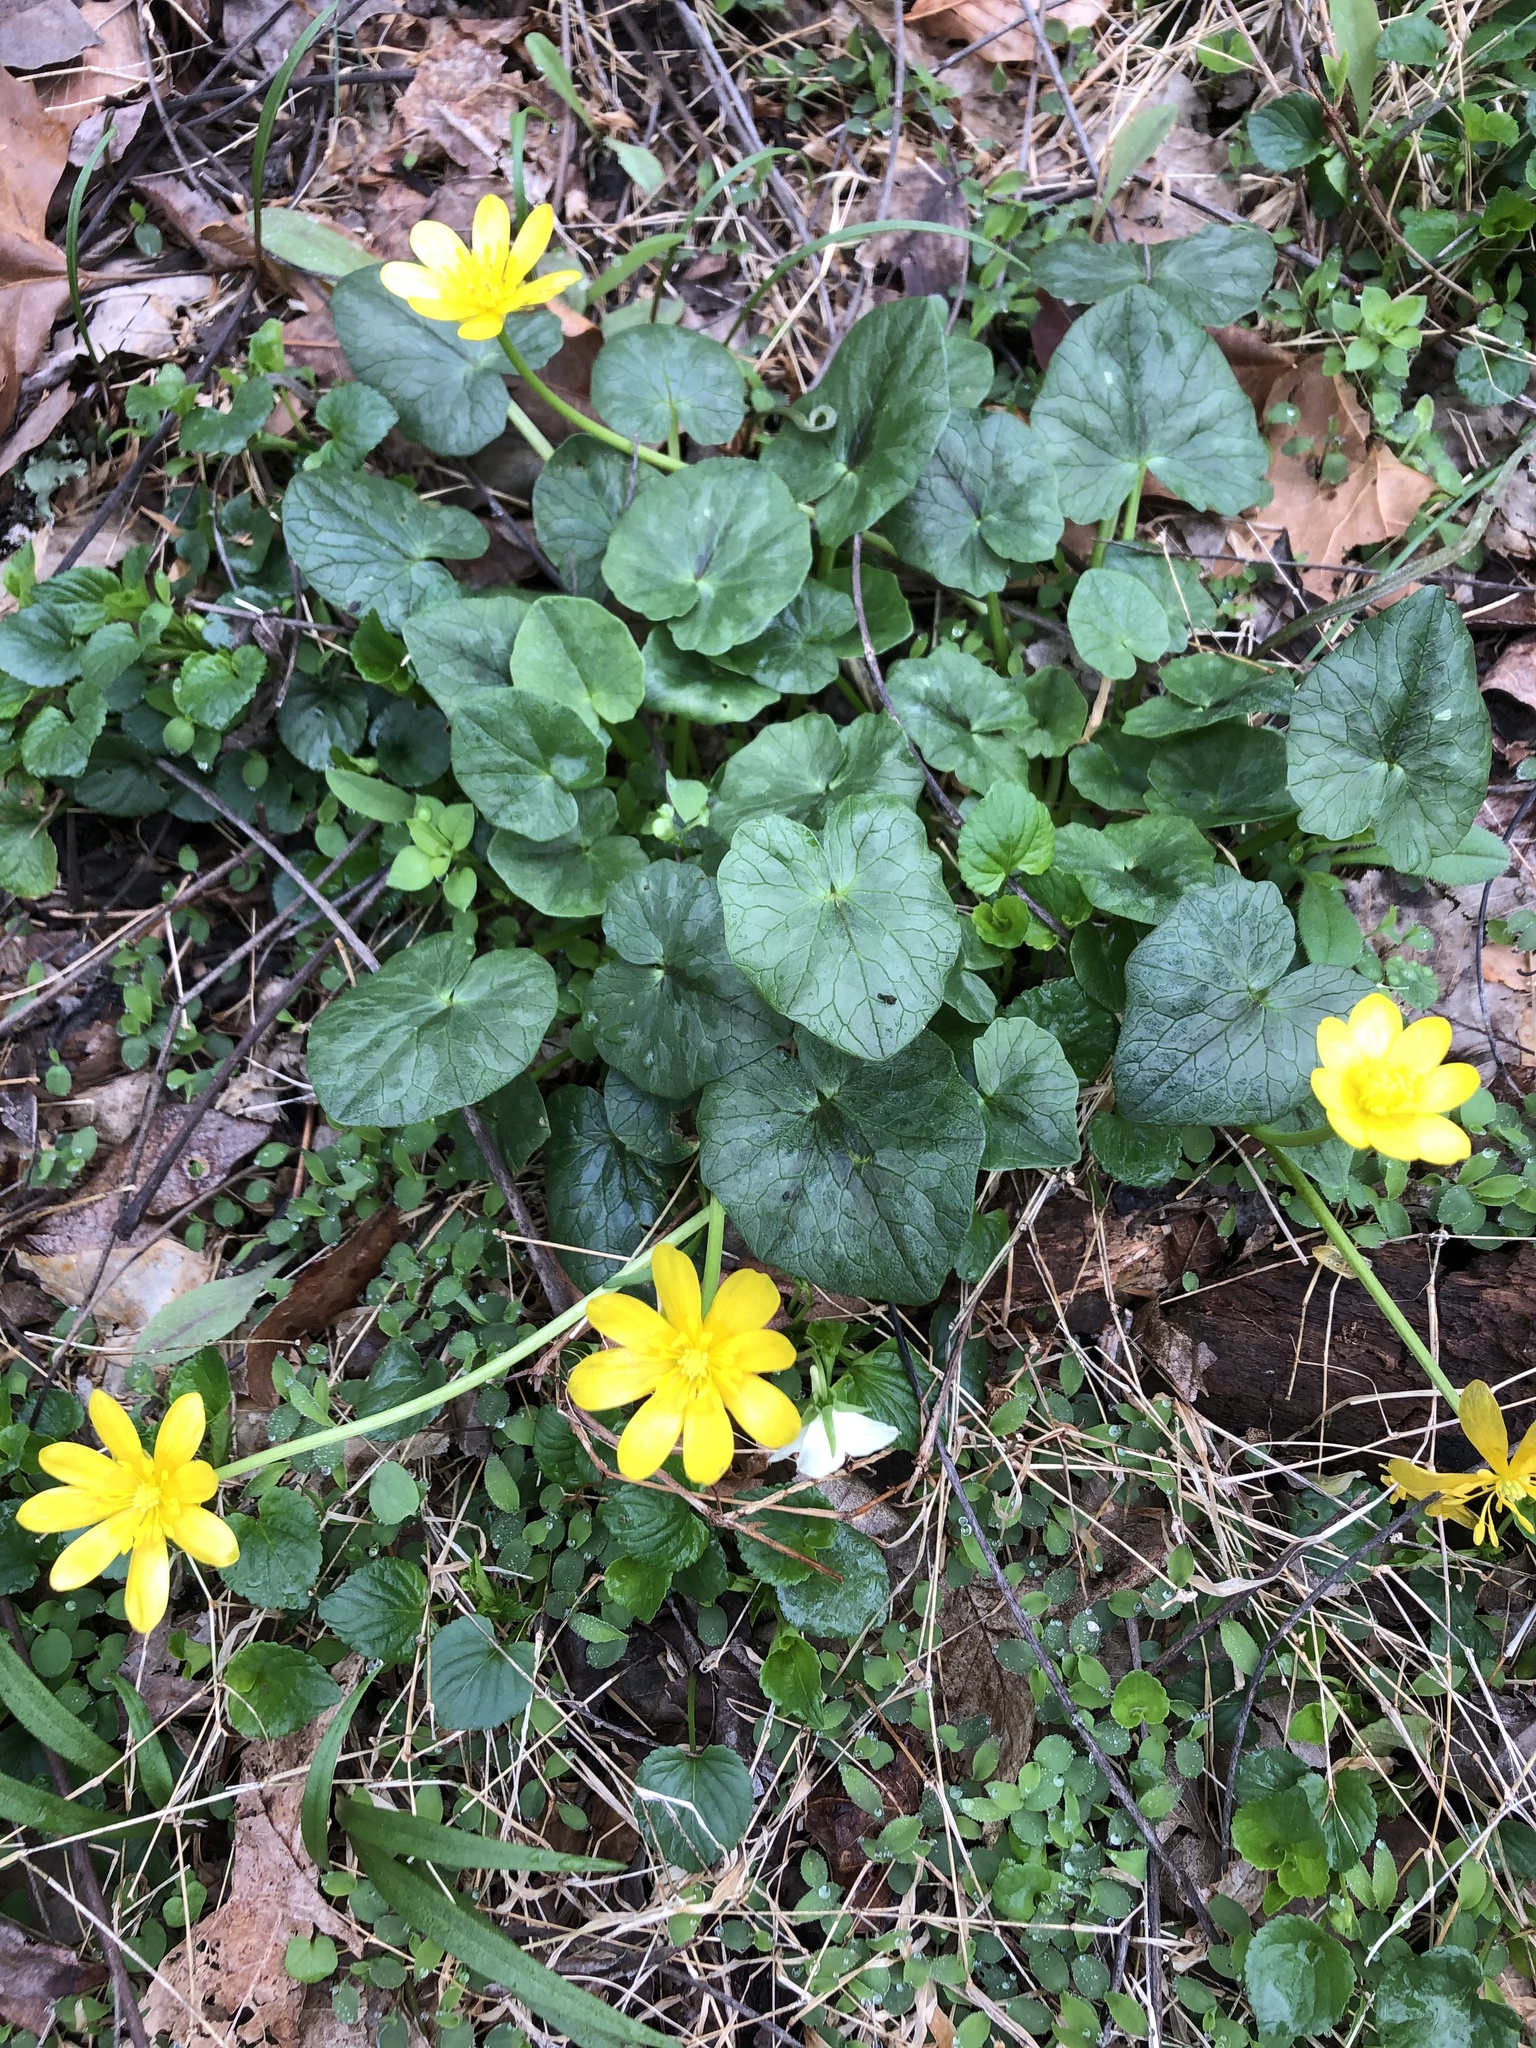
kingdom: Plantae
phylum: Tracheophyta
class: Magnoliopsida
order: Ranunculales
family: Ranunculaceae
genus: Ficaria
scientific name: Ficaria verna
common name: Lesser celandine
